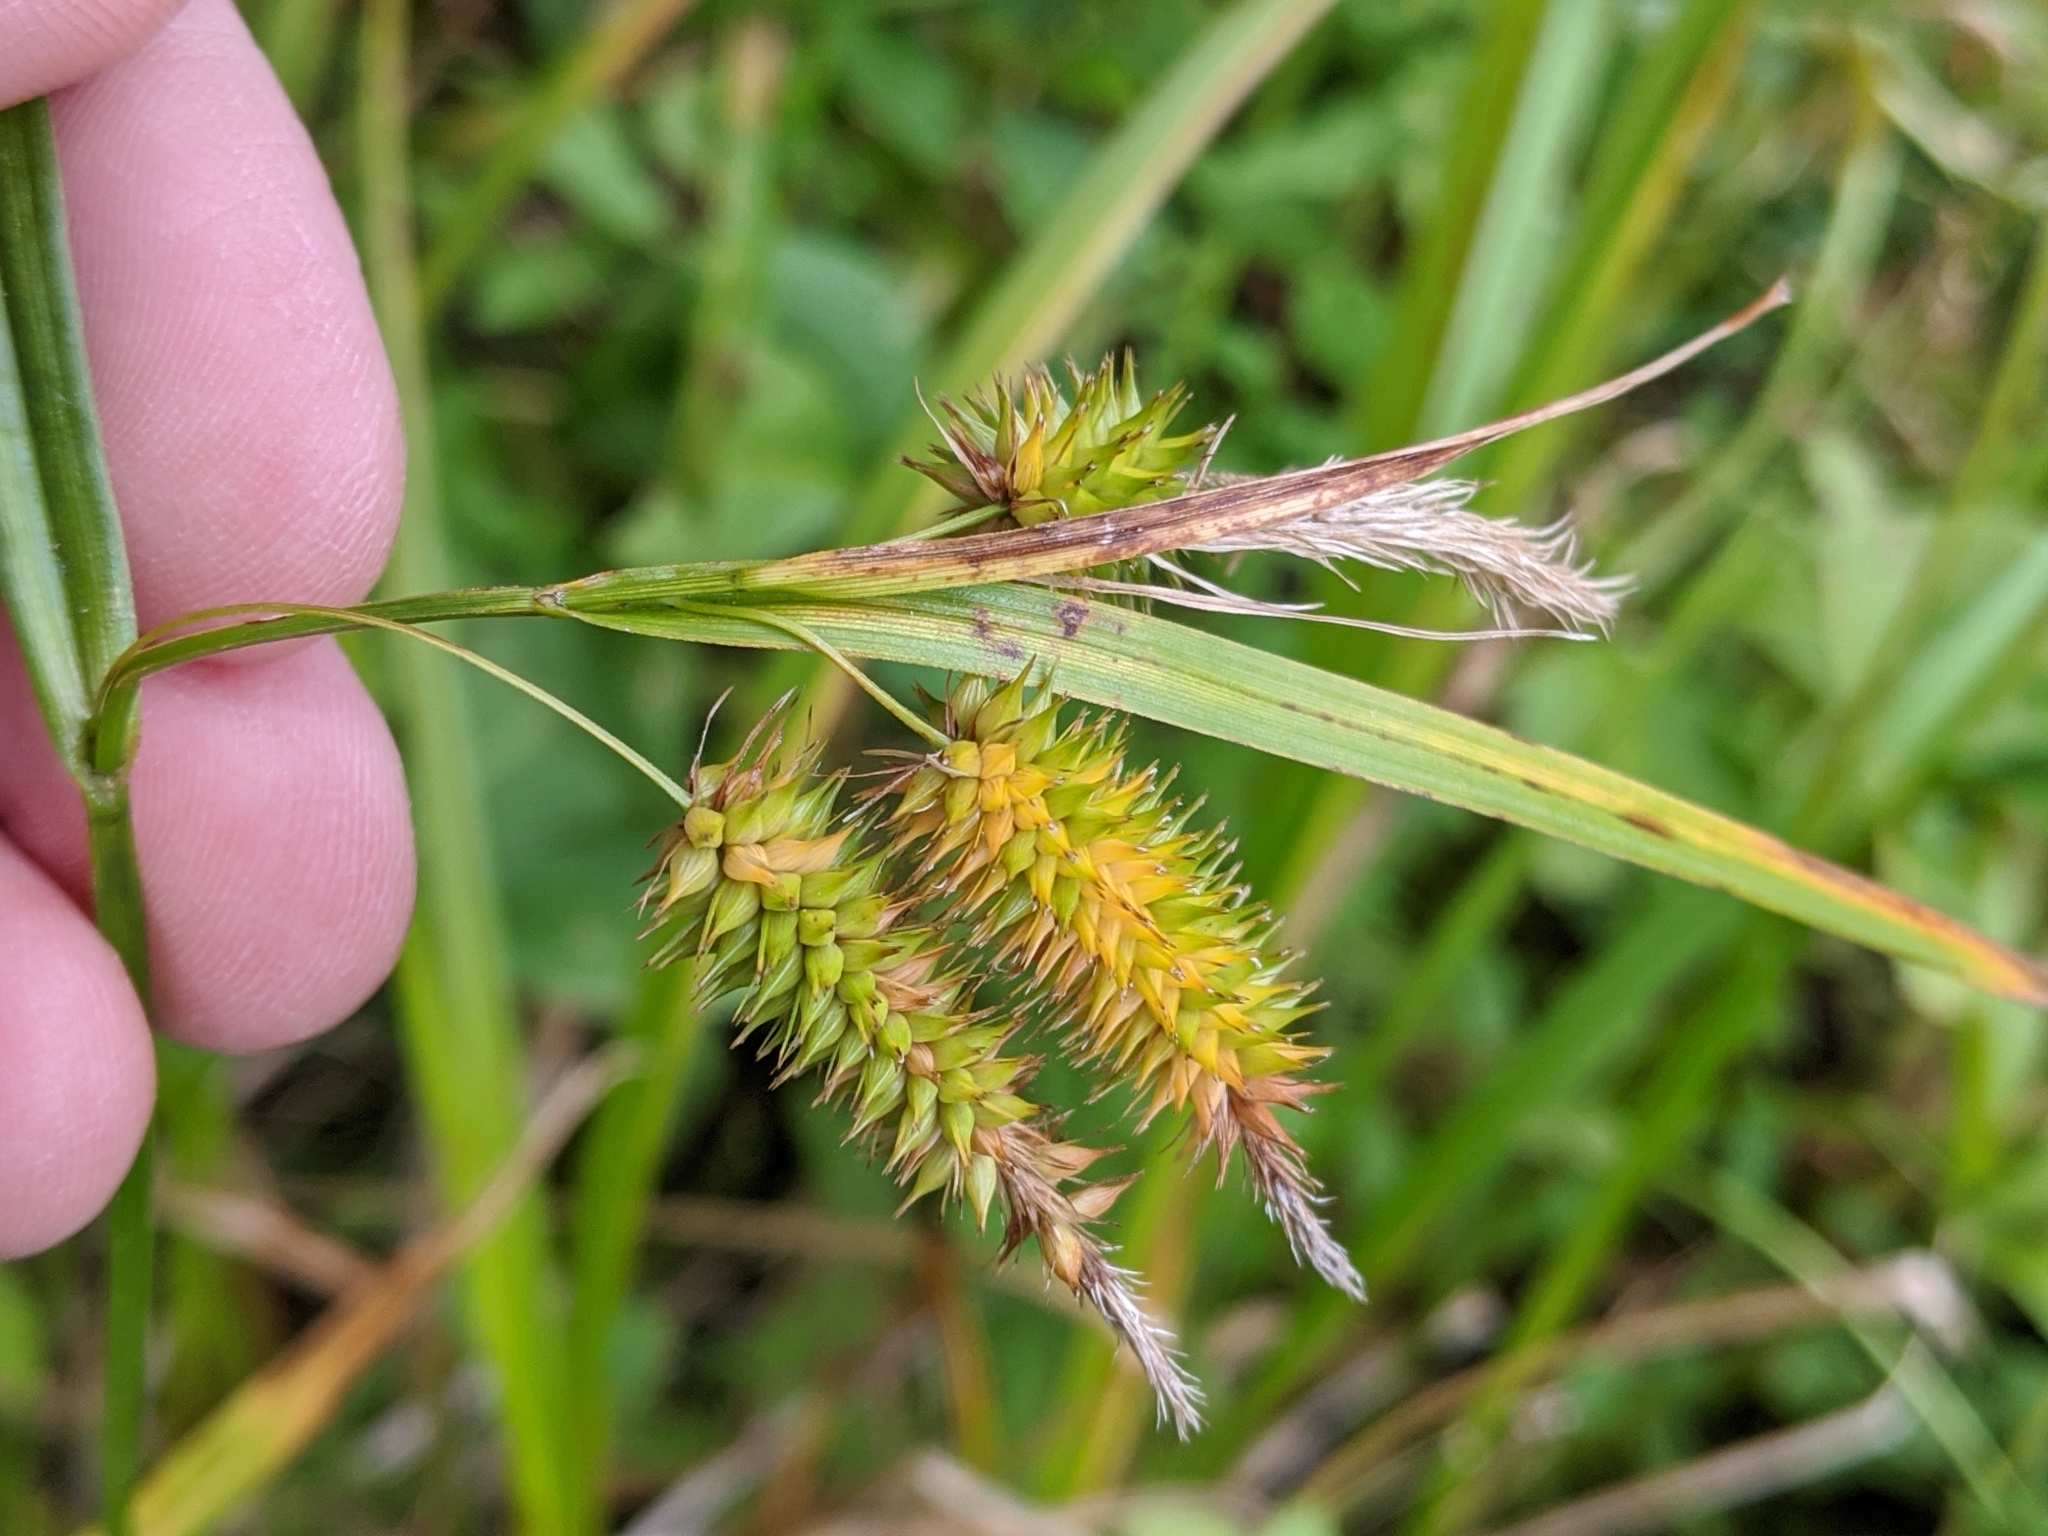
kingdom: Plantae
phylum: Tracheophyta
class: Liliopsida
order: Poales
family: Cyperaceae
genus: Carex
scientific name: Carex pseudocyperus
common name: Cyperus sedge
